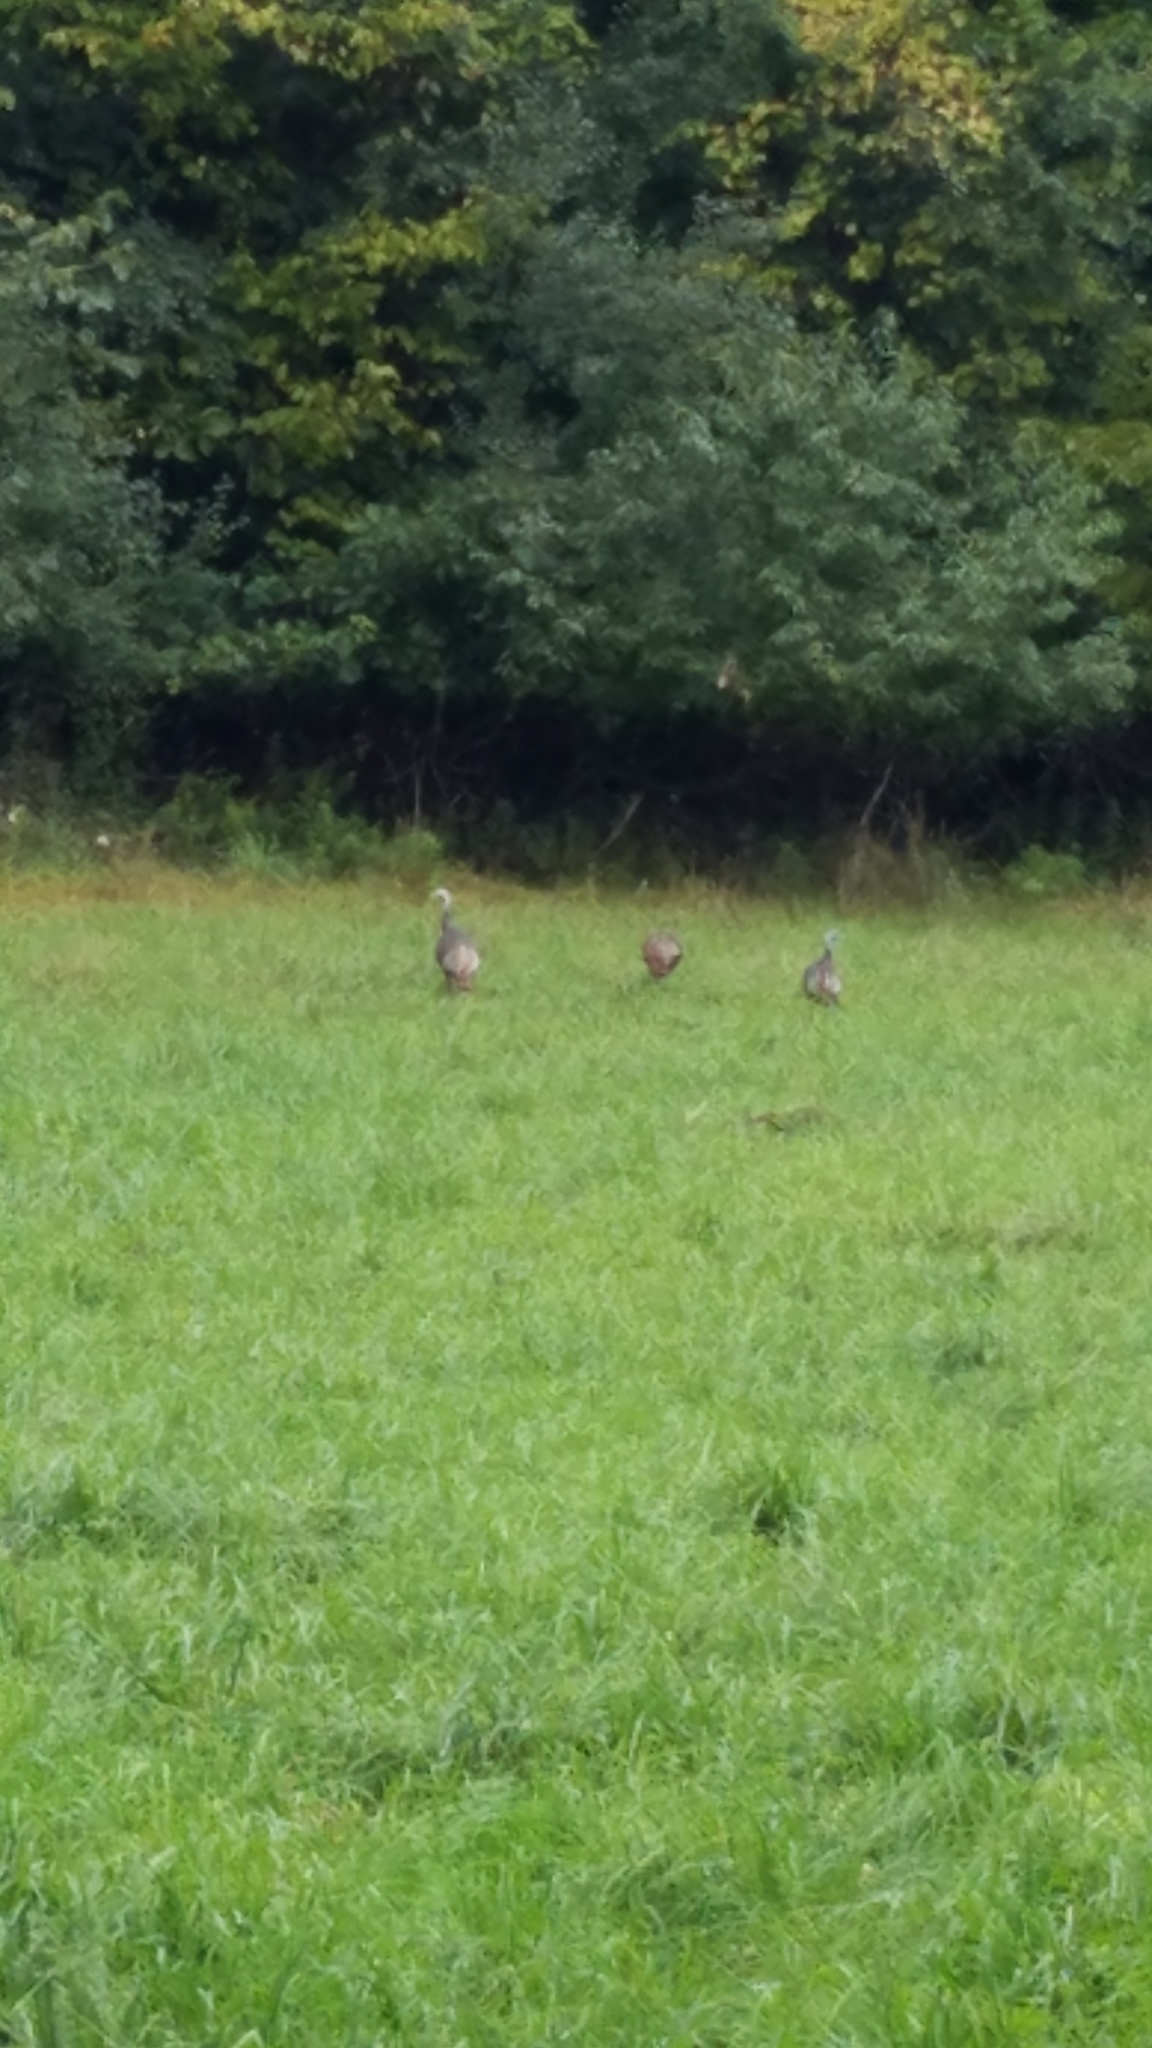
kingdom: Animalia
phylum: Chordata
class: Aves
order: Galliformes
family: Phasianidae
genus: Meleagris
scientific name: Meleagris gallopavo
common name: Wild turkey
